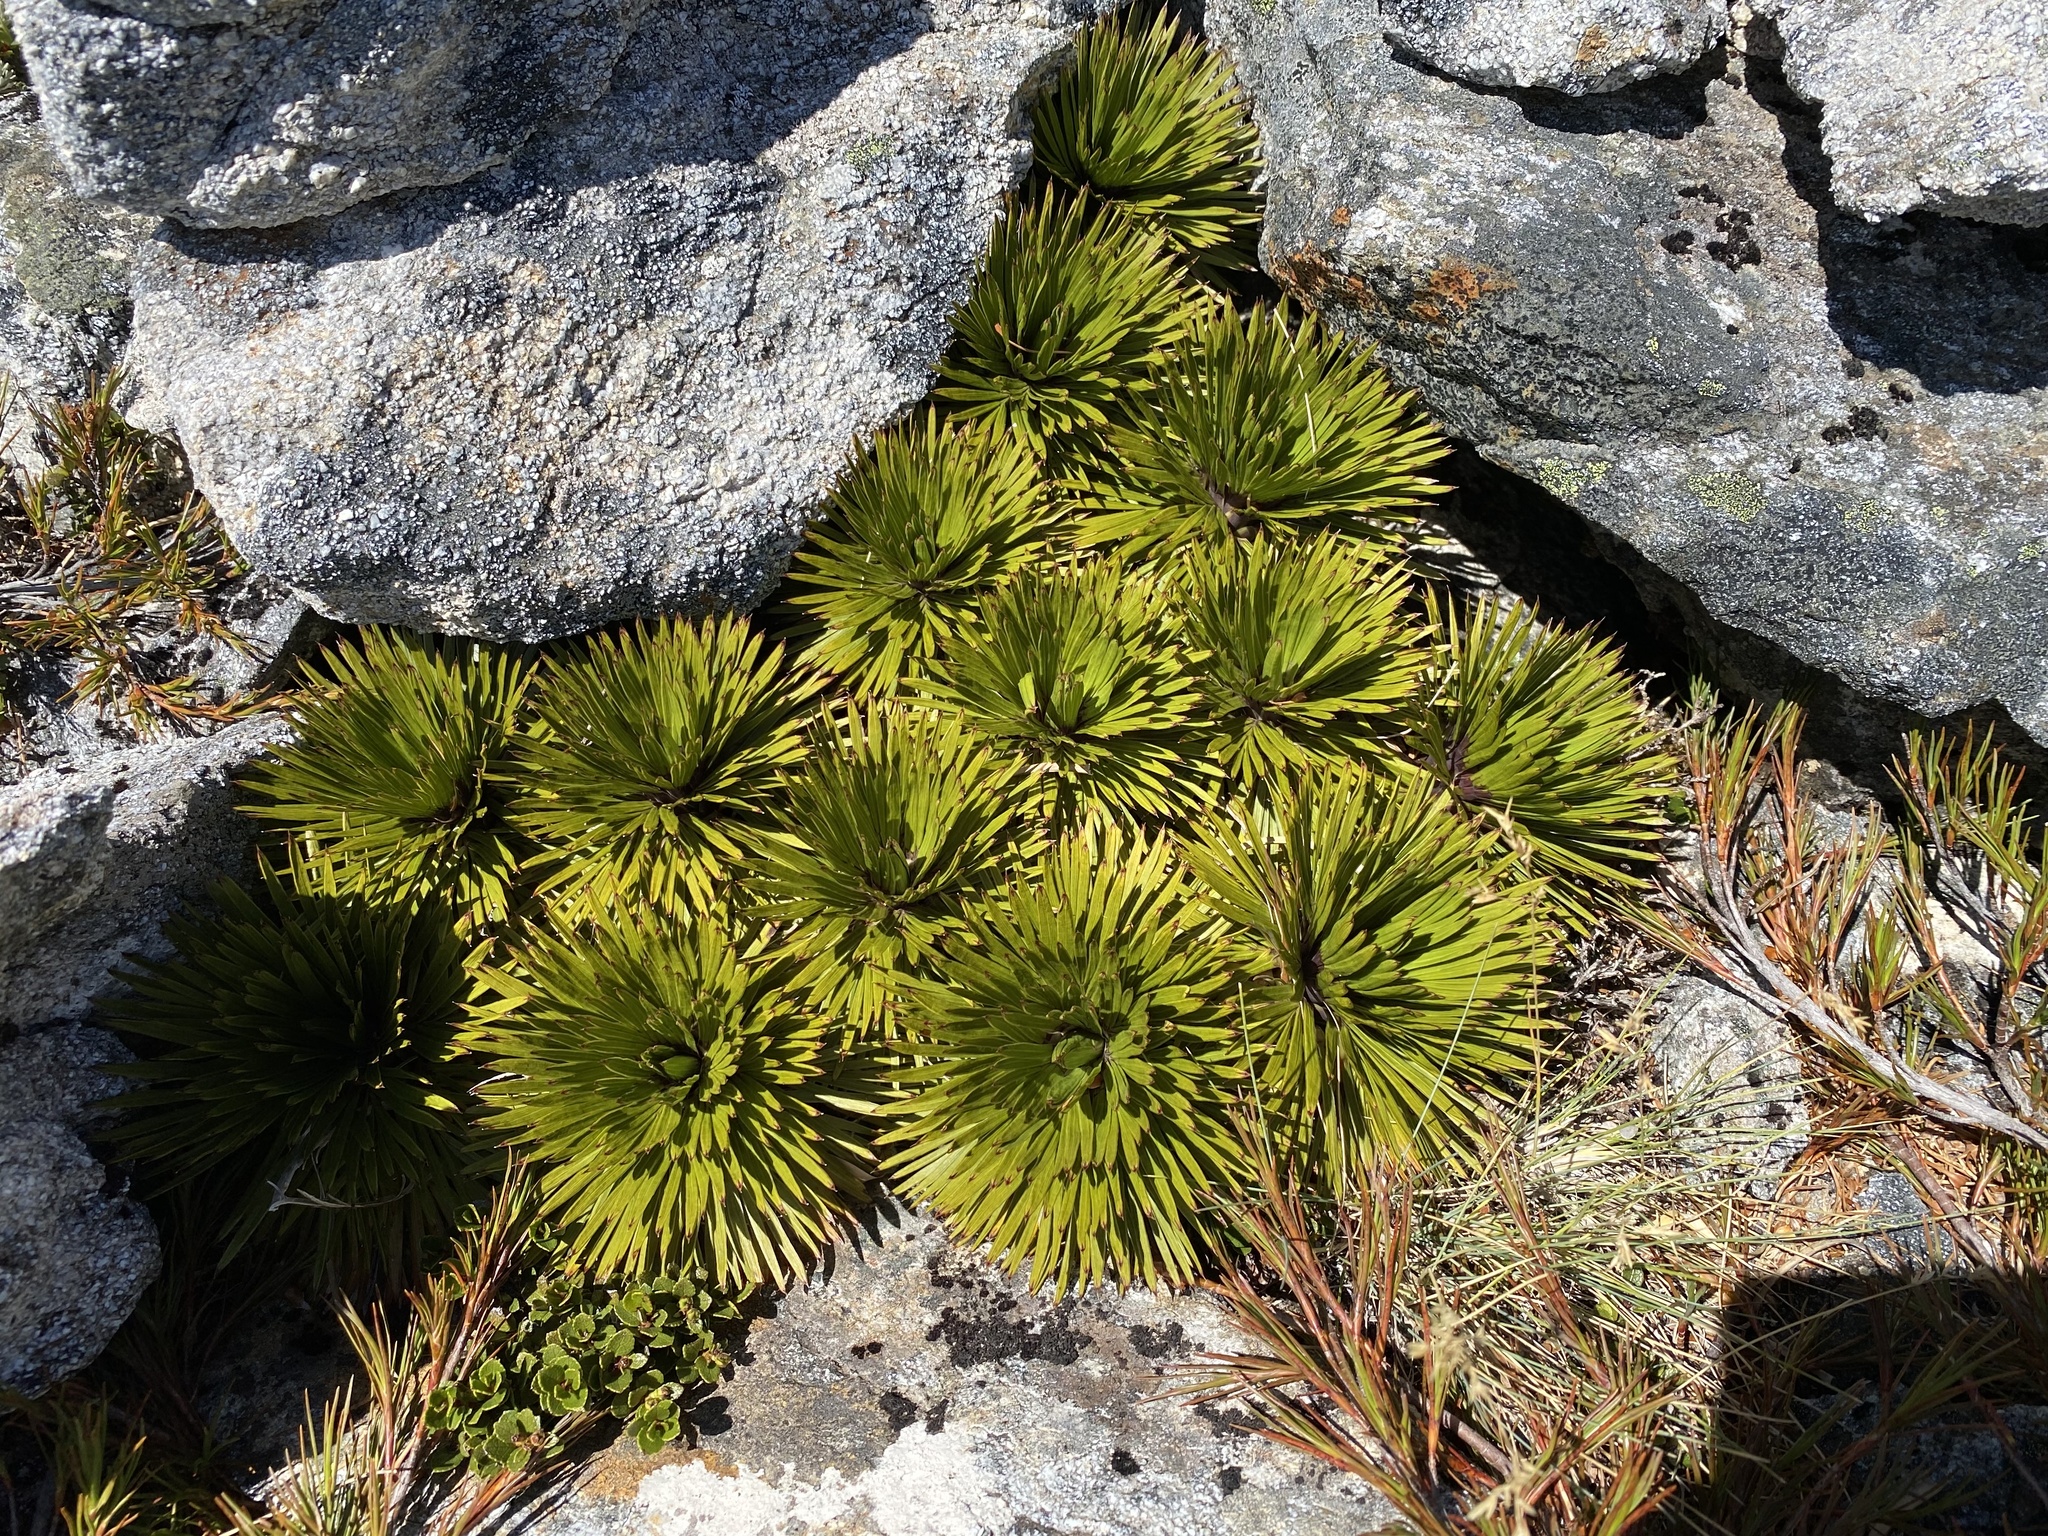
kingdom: Plantae
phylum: Tracheophyta
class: Magnoliopsida
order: Apiales
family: Apiaceae
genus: Aciphylla
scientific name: Aciphylla crosby-smithii
